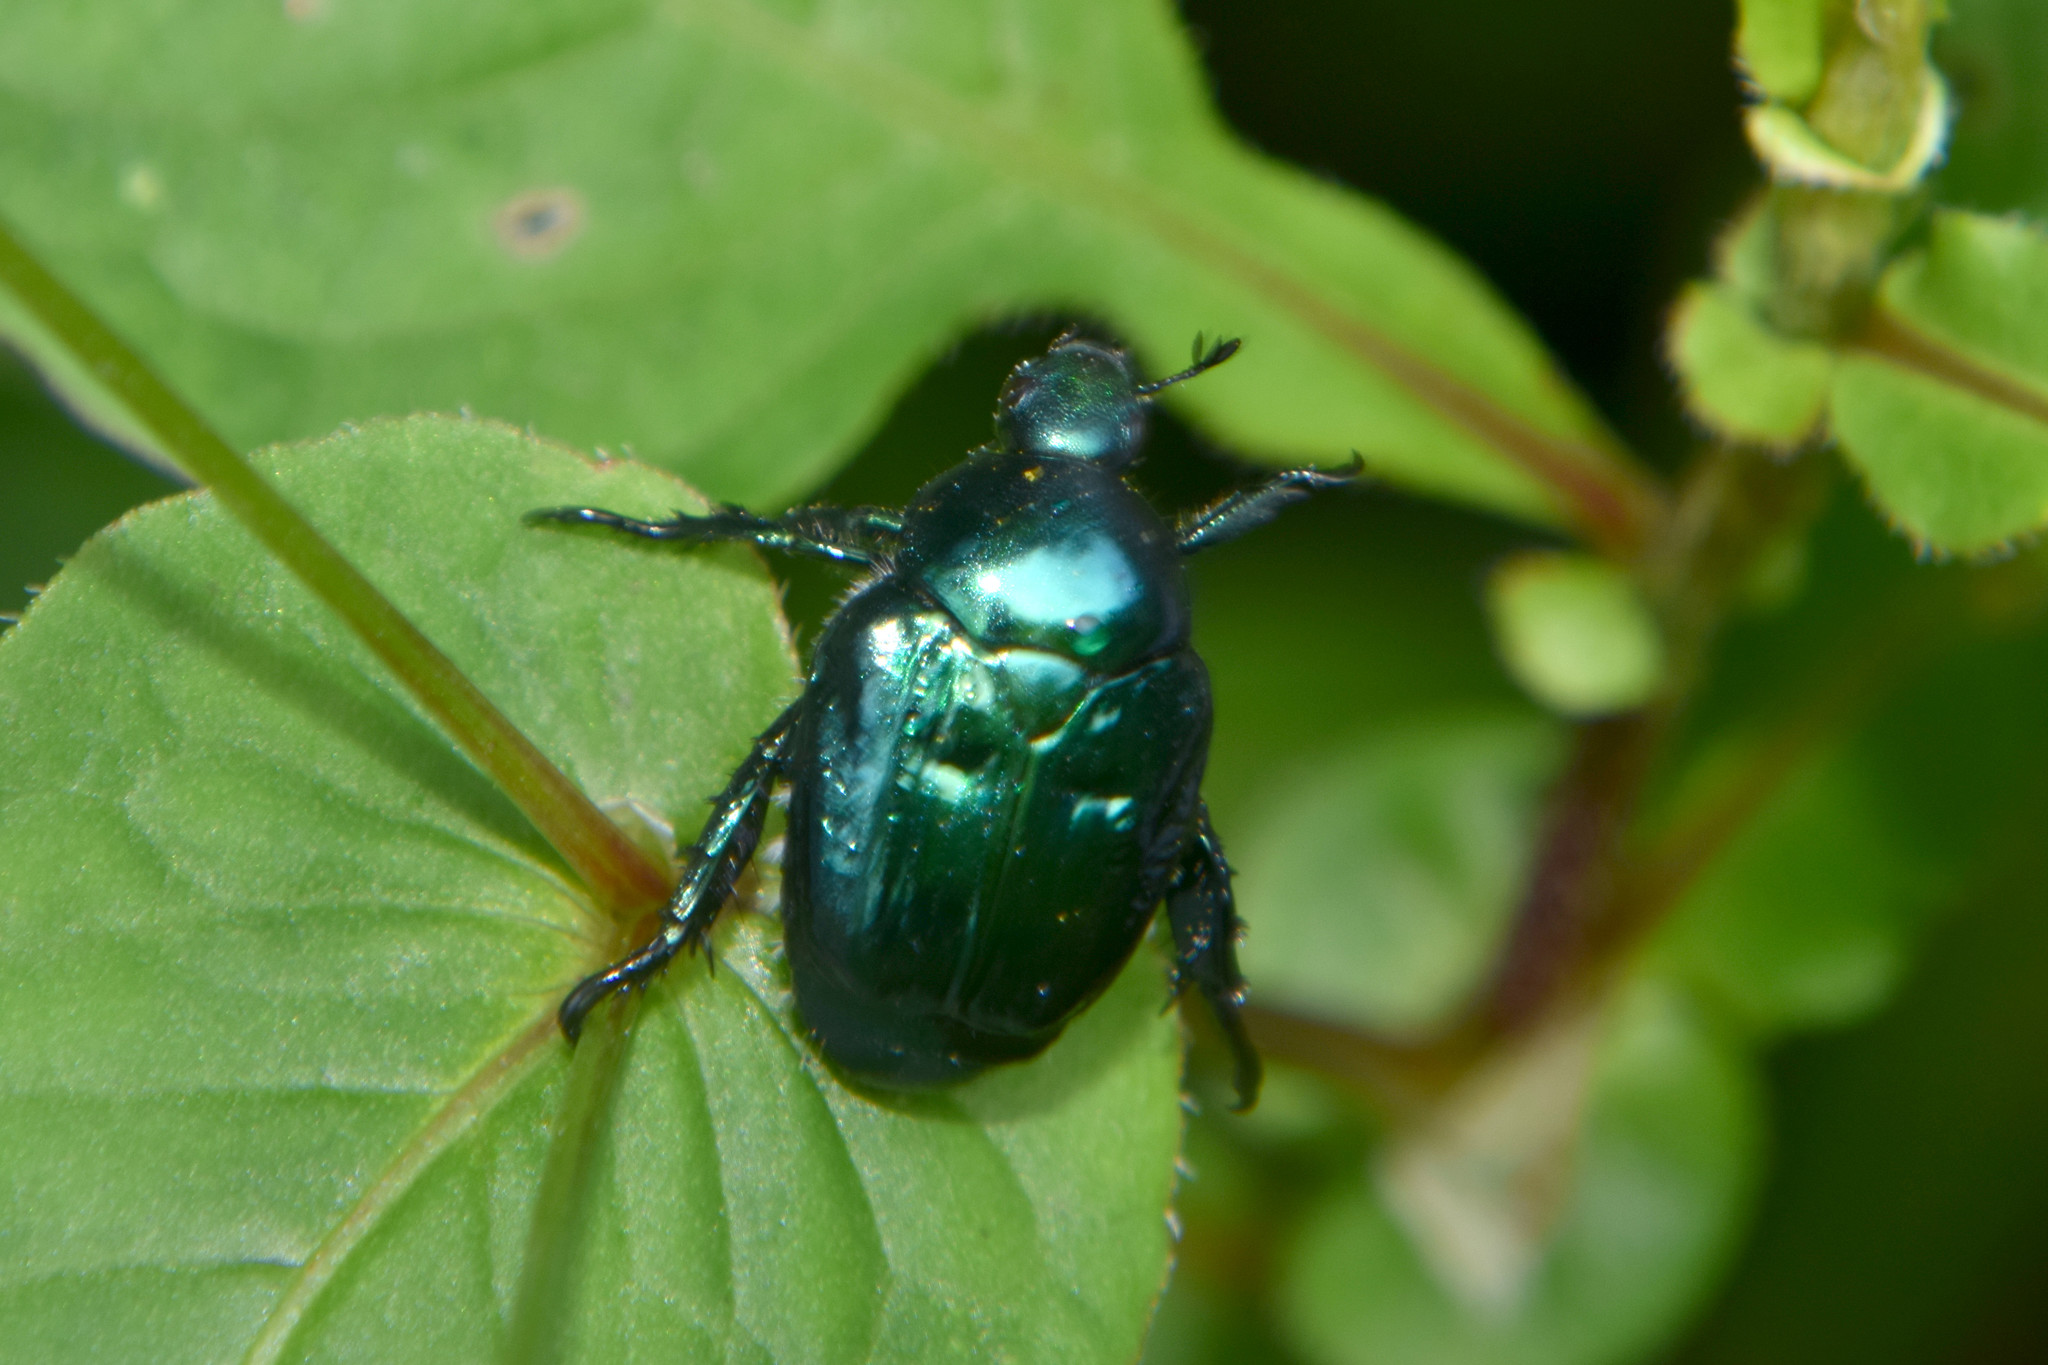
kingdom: Animalia
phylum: Arthropoda
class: Insecta
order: Coleoptera
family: Scarabaeidae
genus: Popillia
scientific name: Popillia cyanea
